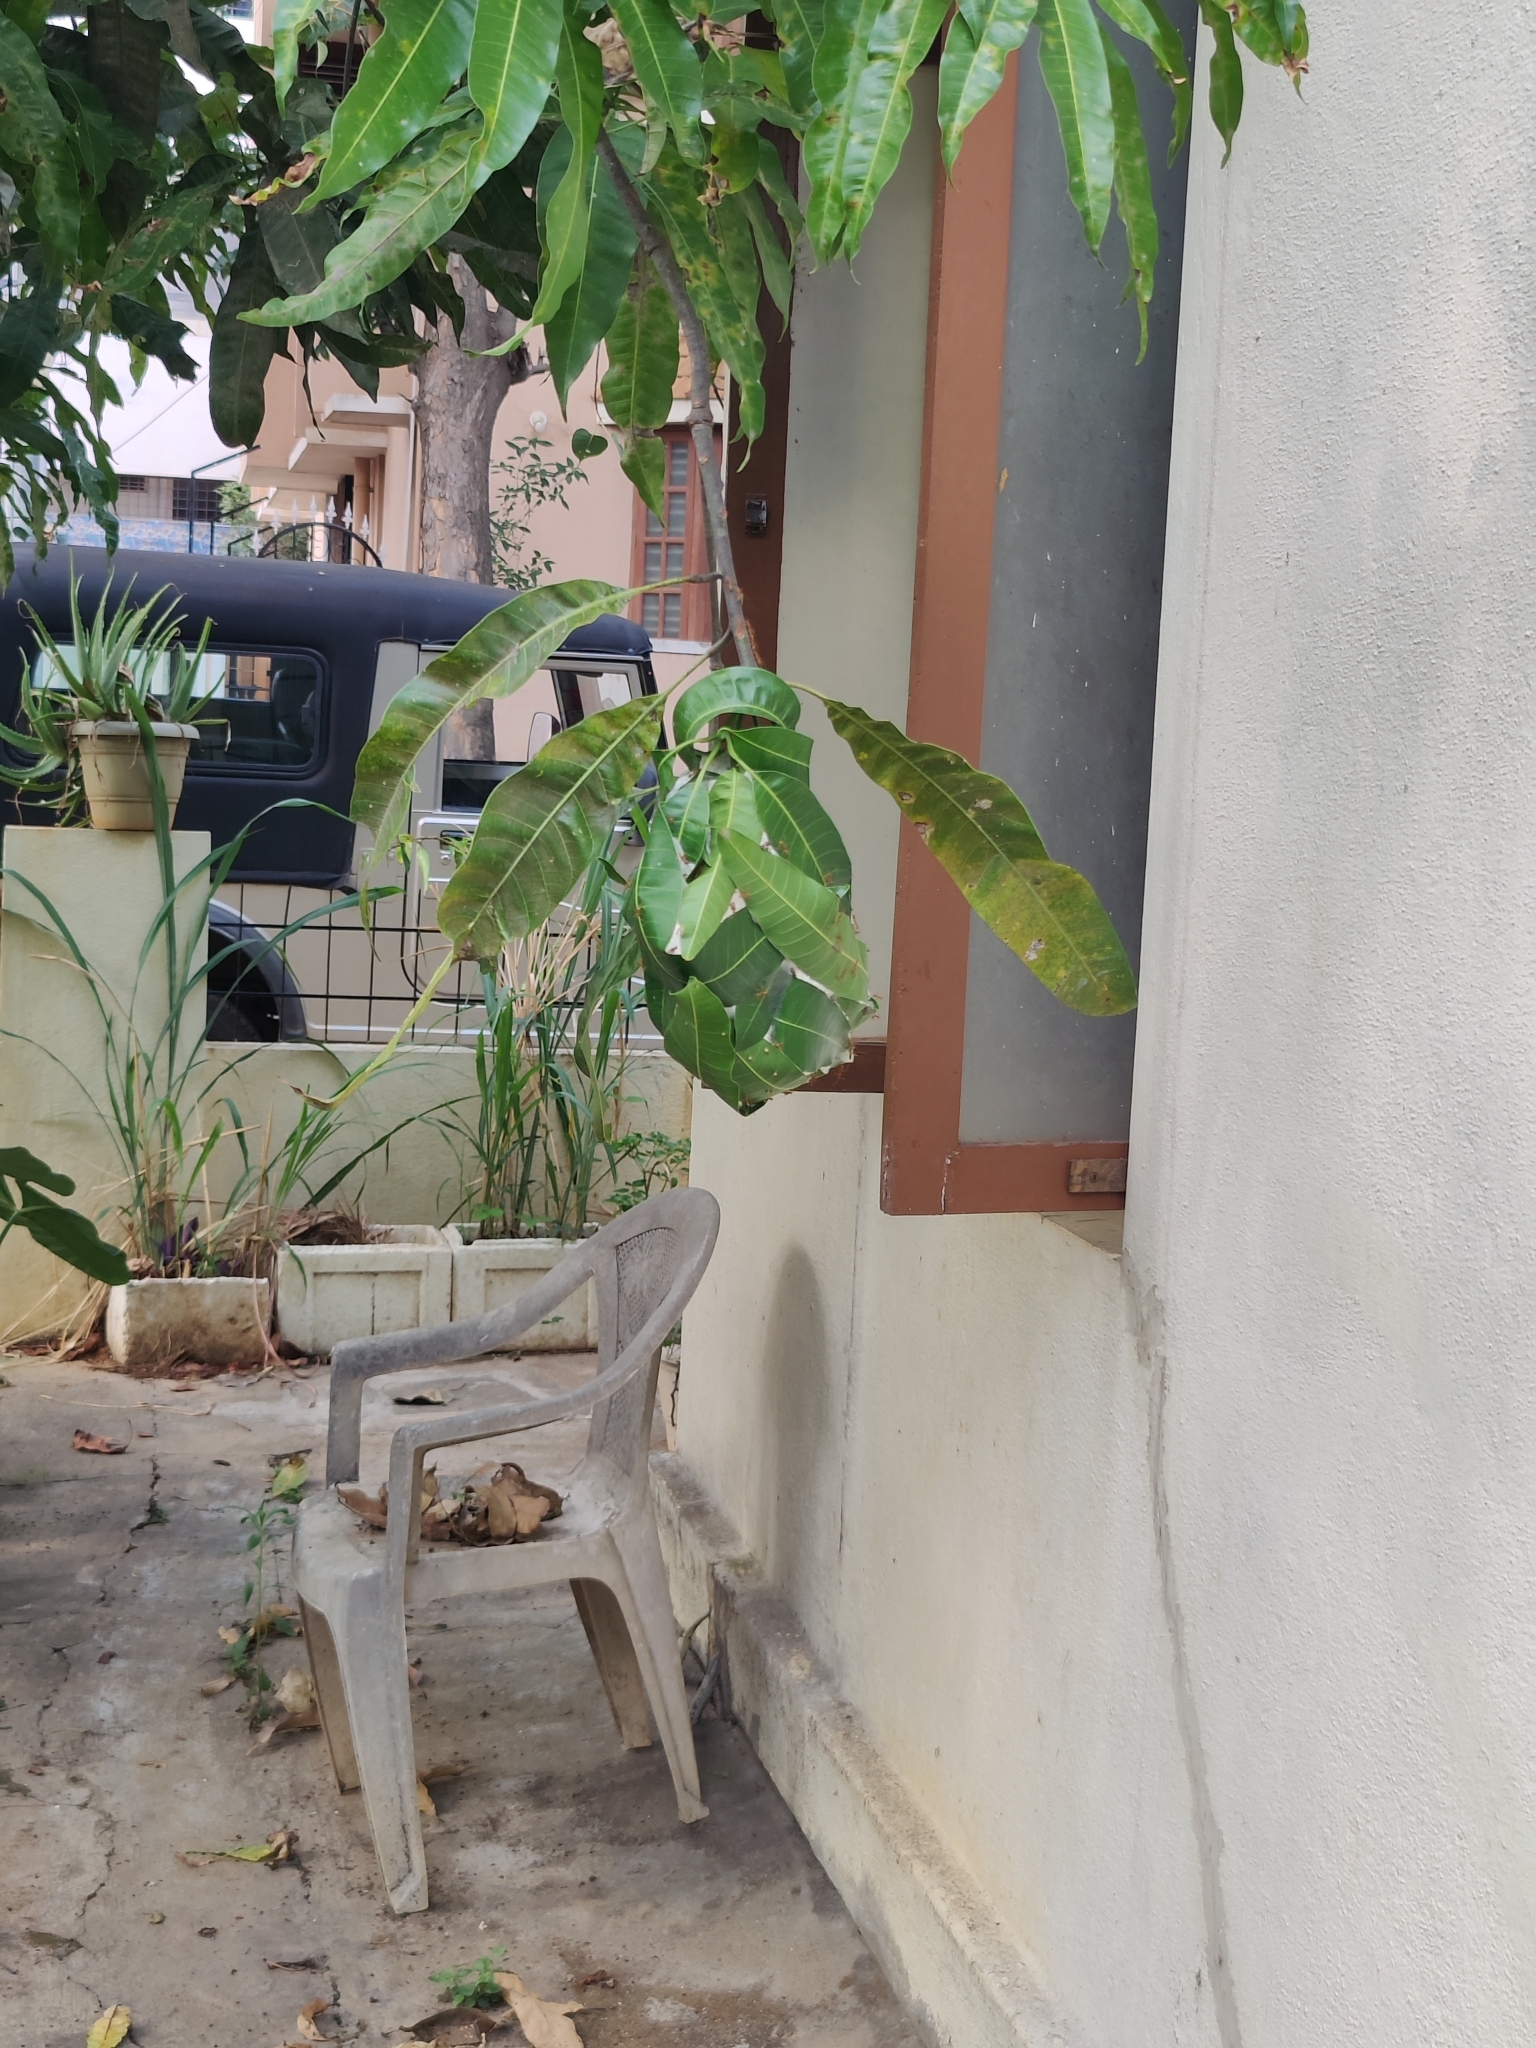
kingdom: Animalia
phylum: Arthropoda
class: Insecta
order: Hymenoptera
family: Formicidae
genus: Oecophylla
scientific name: Oecophylla smaragdina
